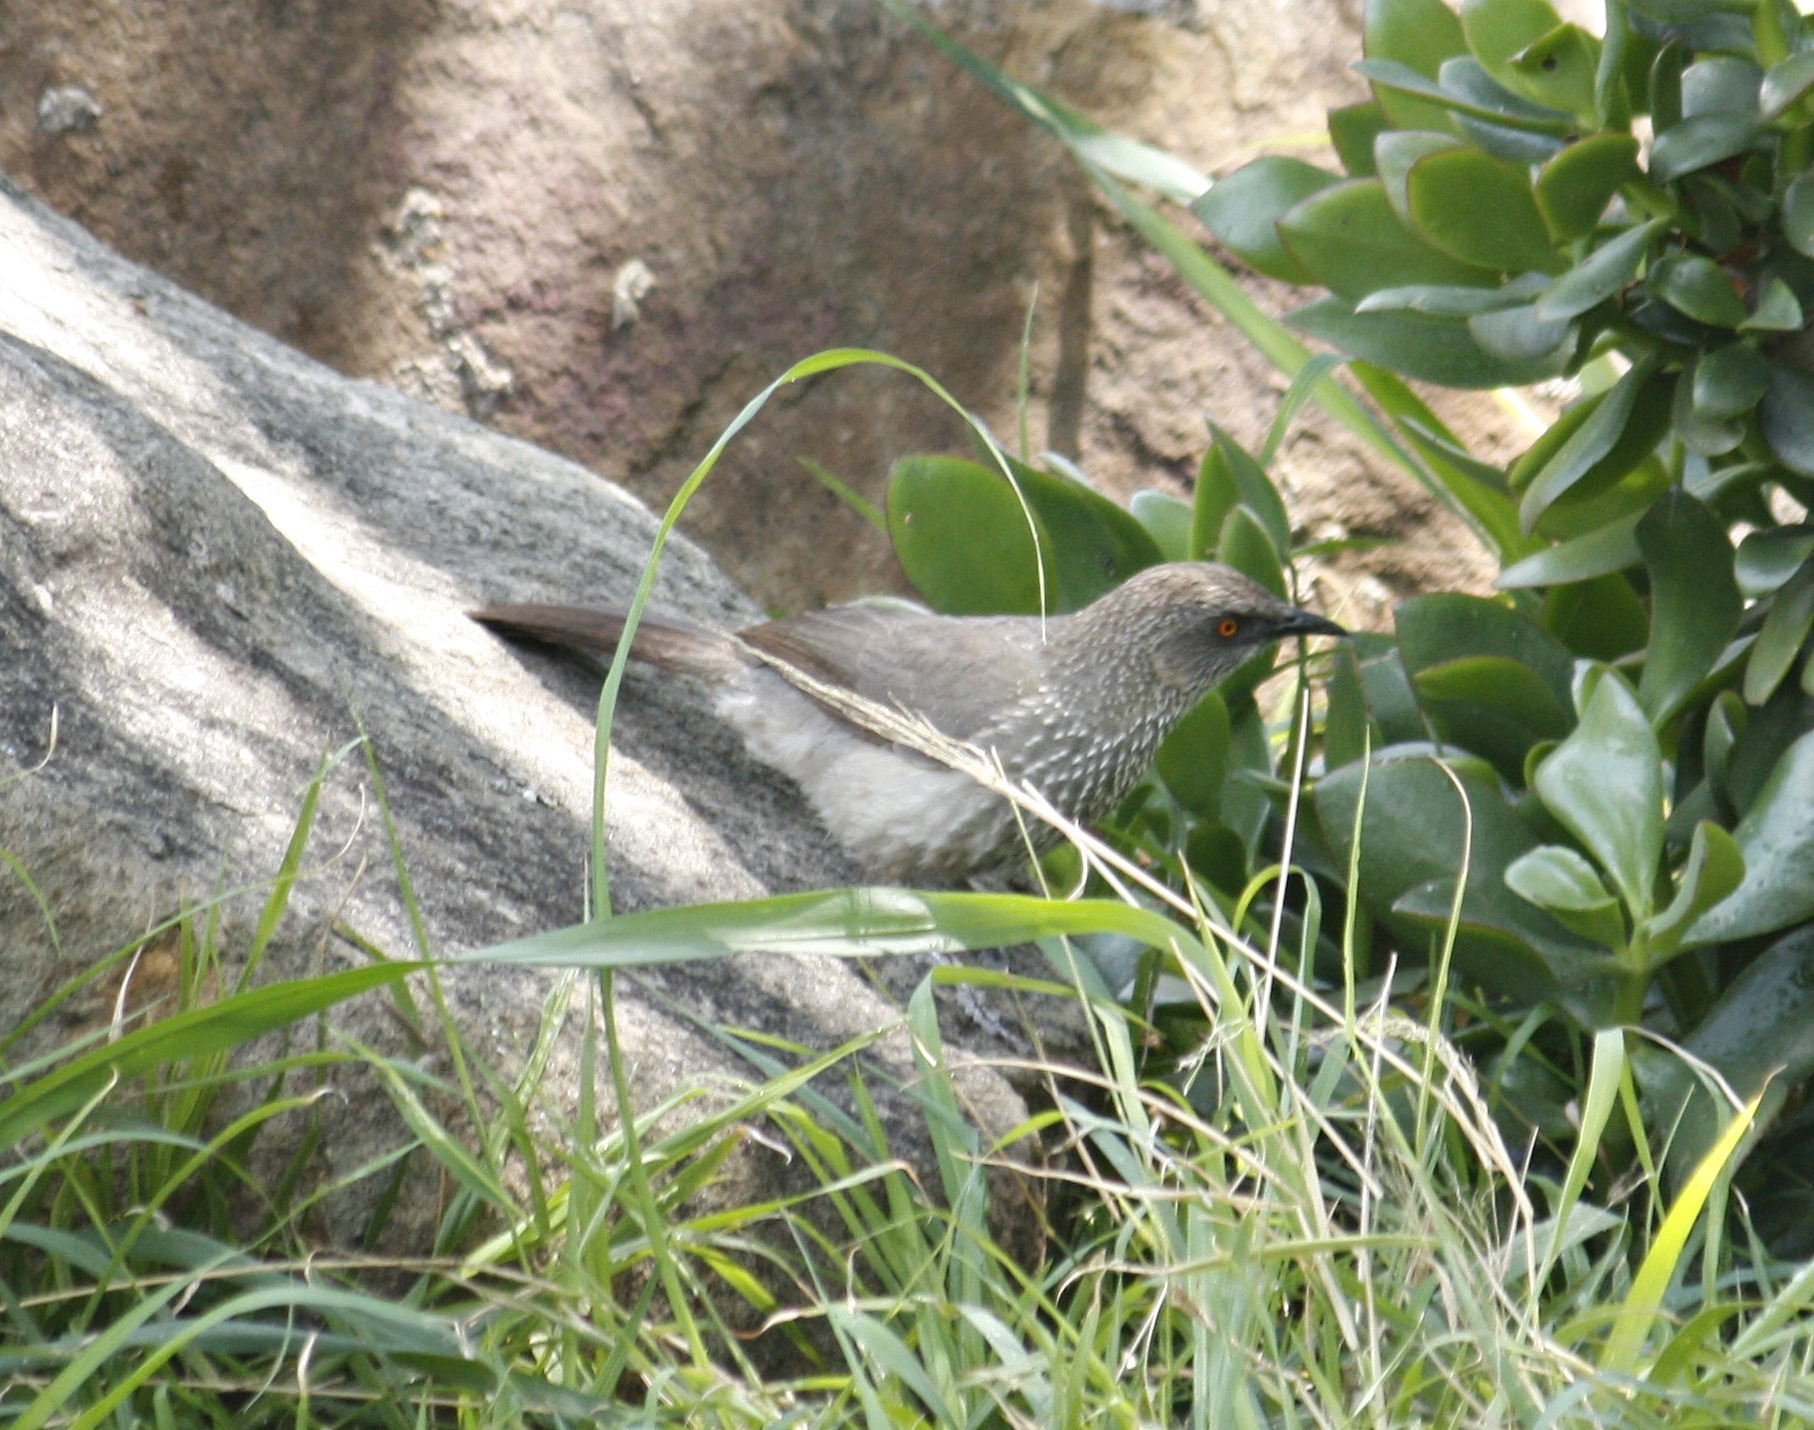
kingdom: Animalia
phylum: Chordata
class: Aves
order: Passeriformes
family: Leiothrichidae
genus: Turdoides
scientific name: Turdoides jardineii
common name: Arrow-marked babbler
